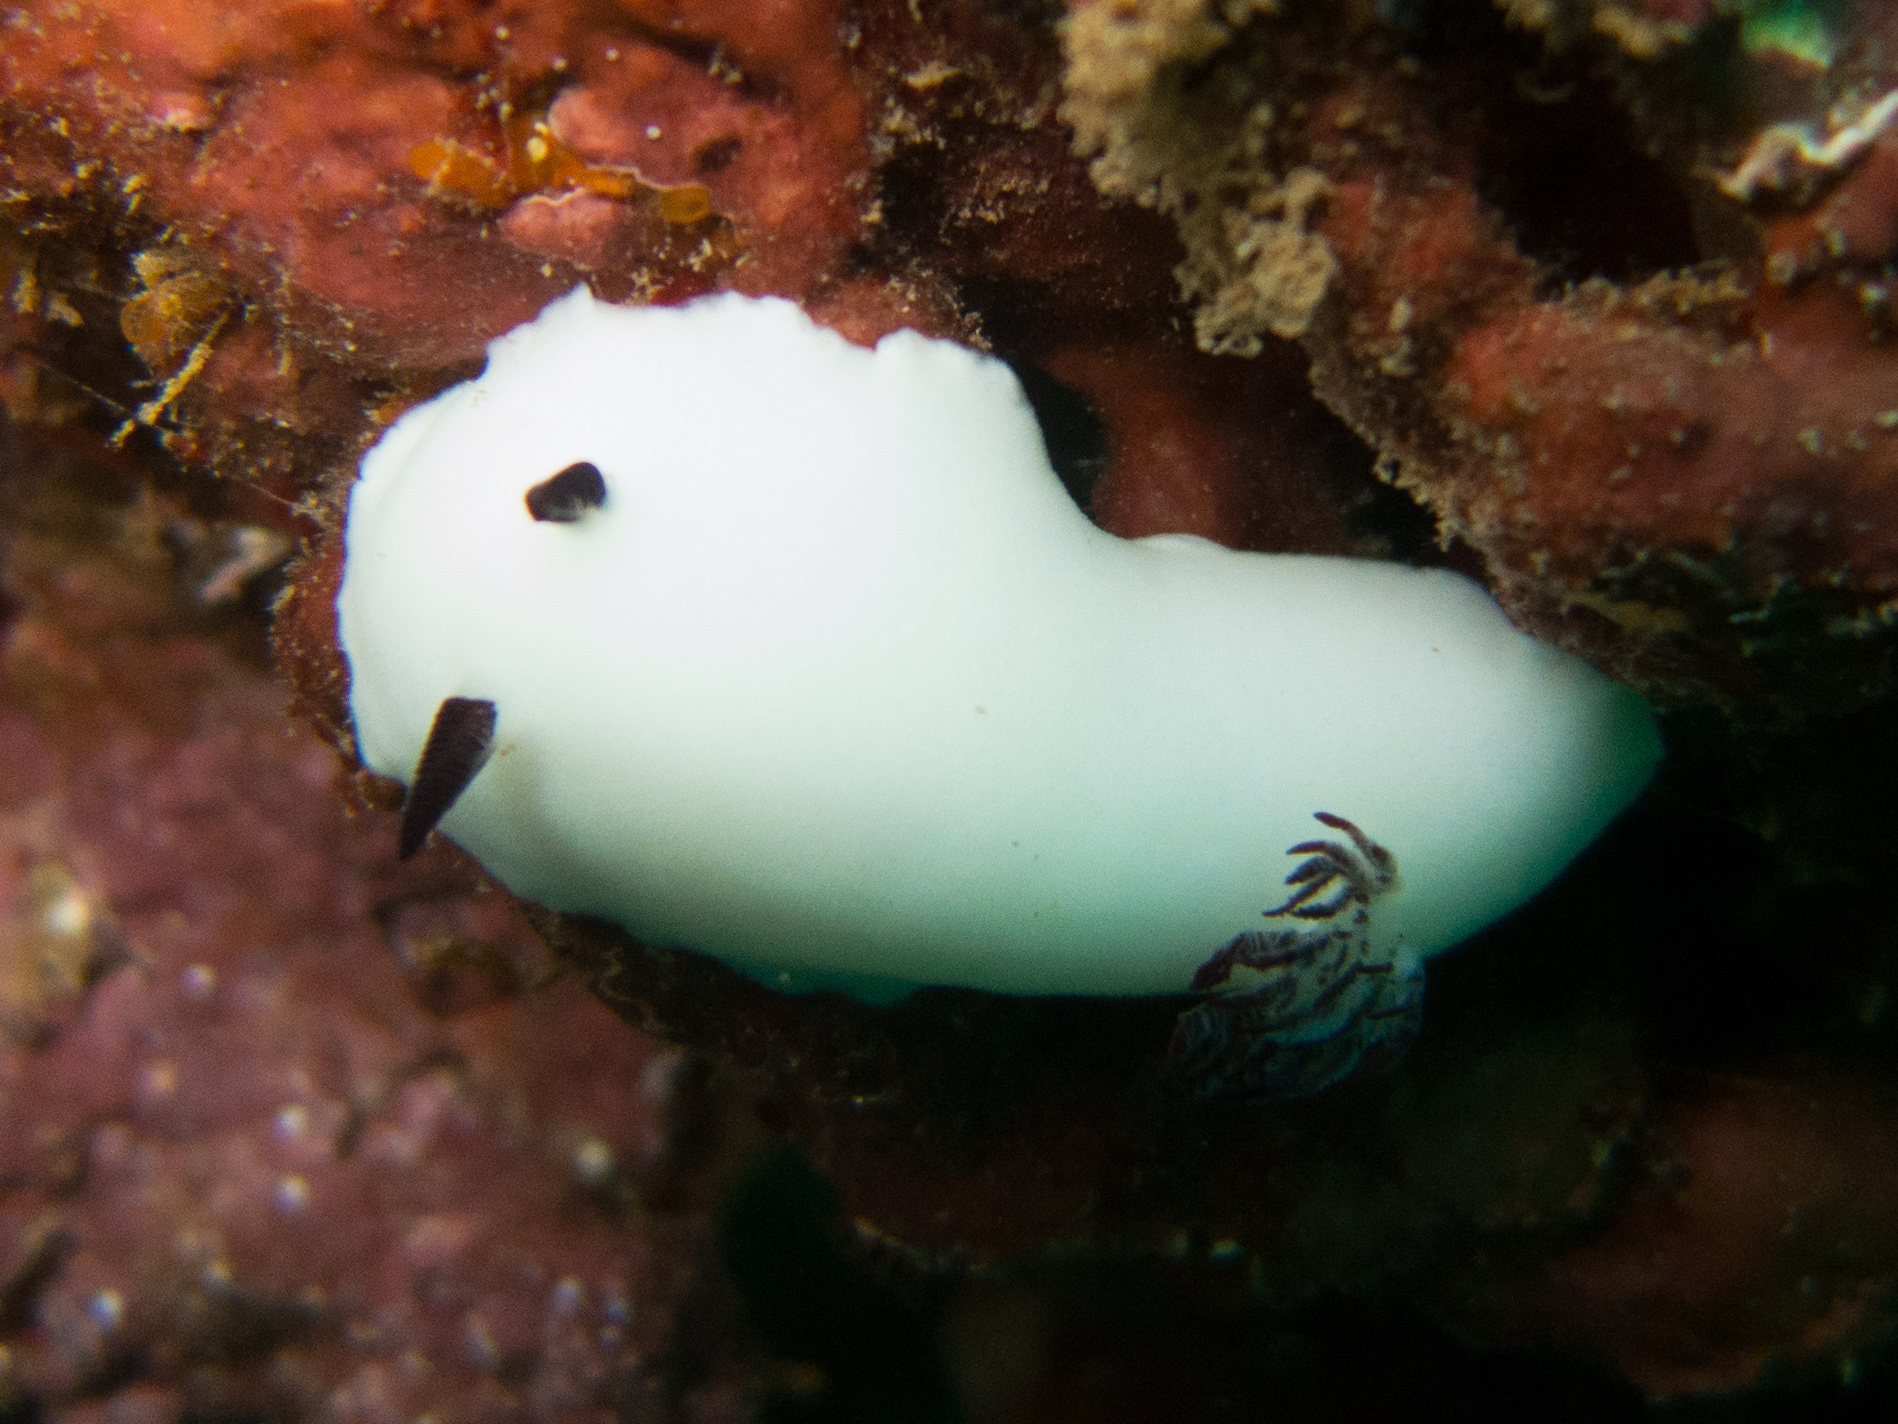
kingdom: Animalia
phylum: Mollusca
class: Gastropoda
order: Nudibranchia
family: Discodorididae
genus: Hiatodoris
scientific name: Hiatodoris fellowsi
